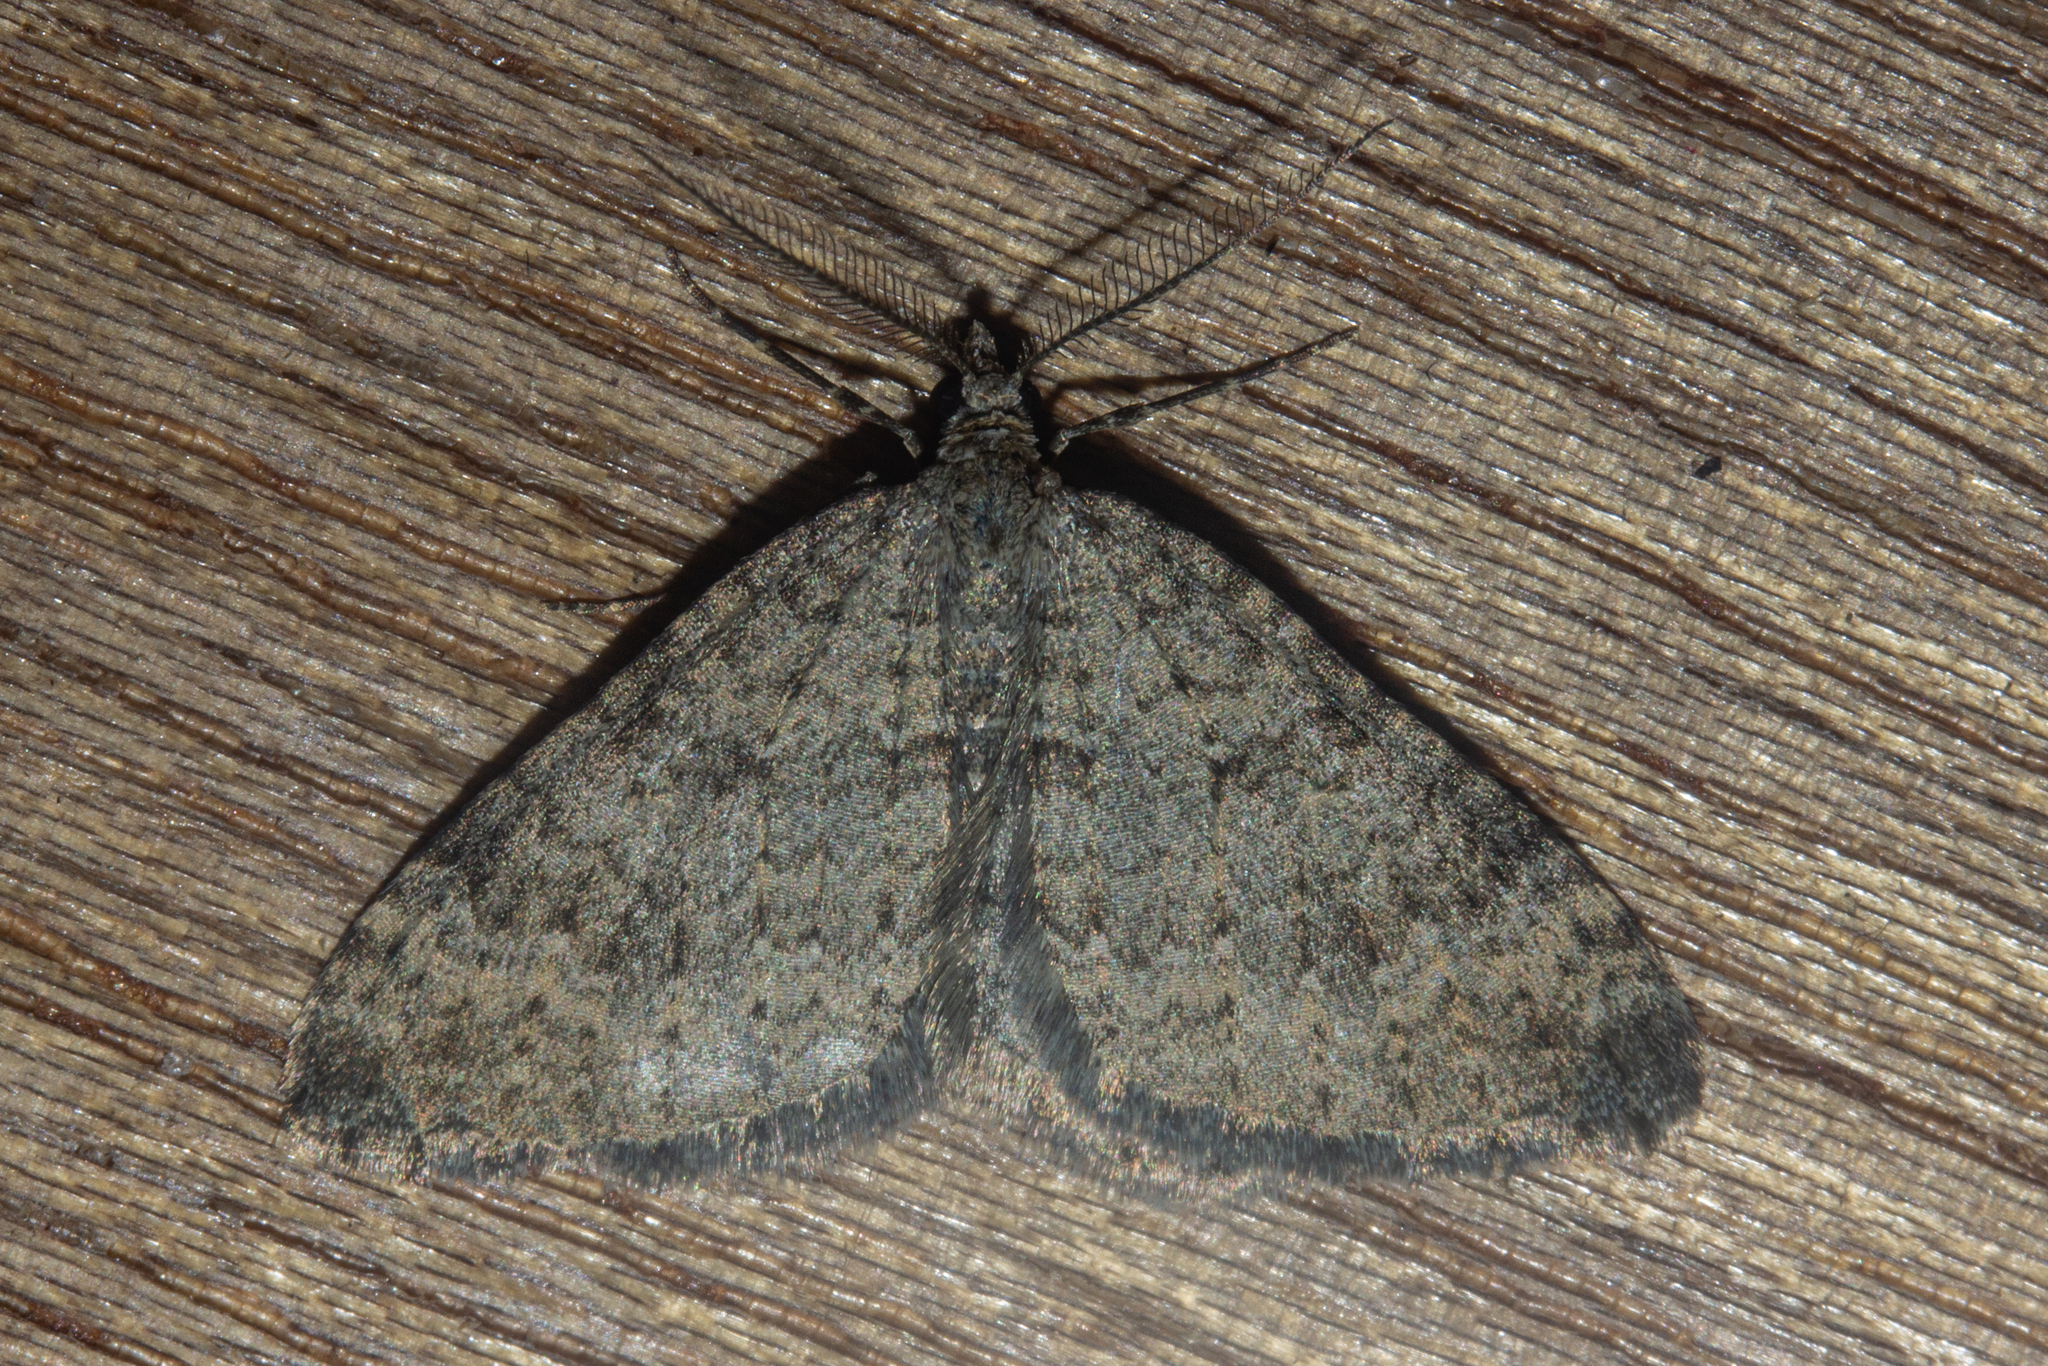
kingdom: Animalia
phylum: Arthropoda
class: Insecta
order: Lepidoptera
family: Geometridae
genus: Helastia
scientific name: Helastia corcularia
